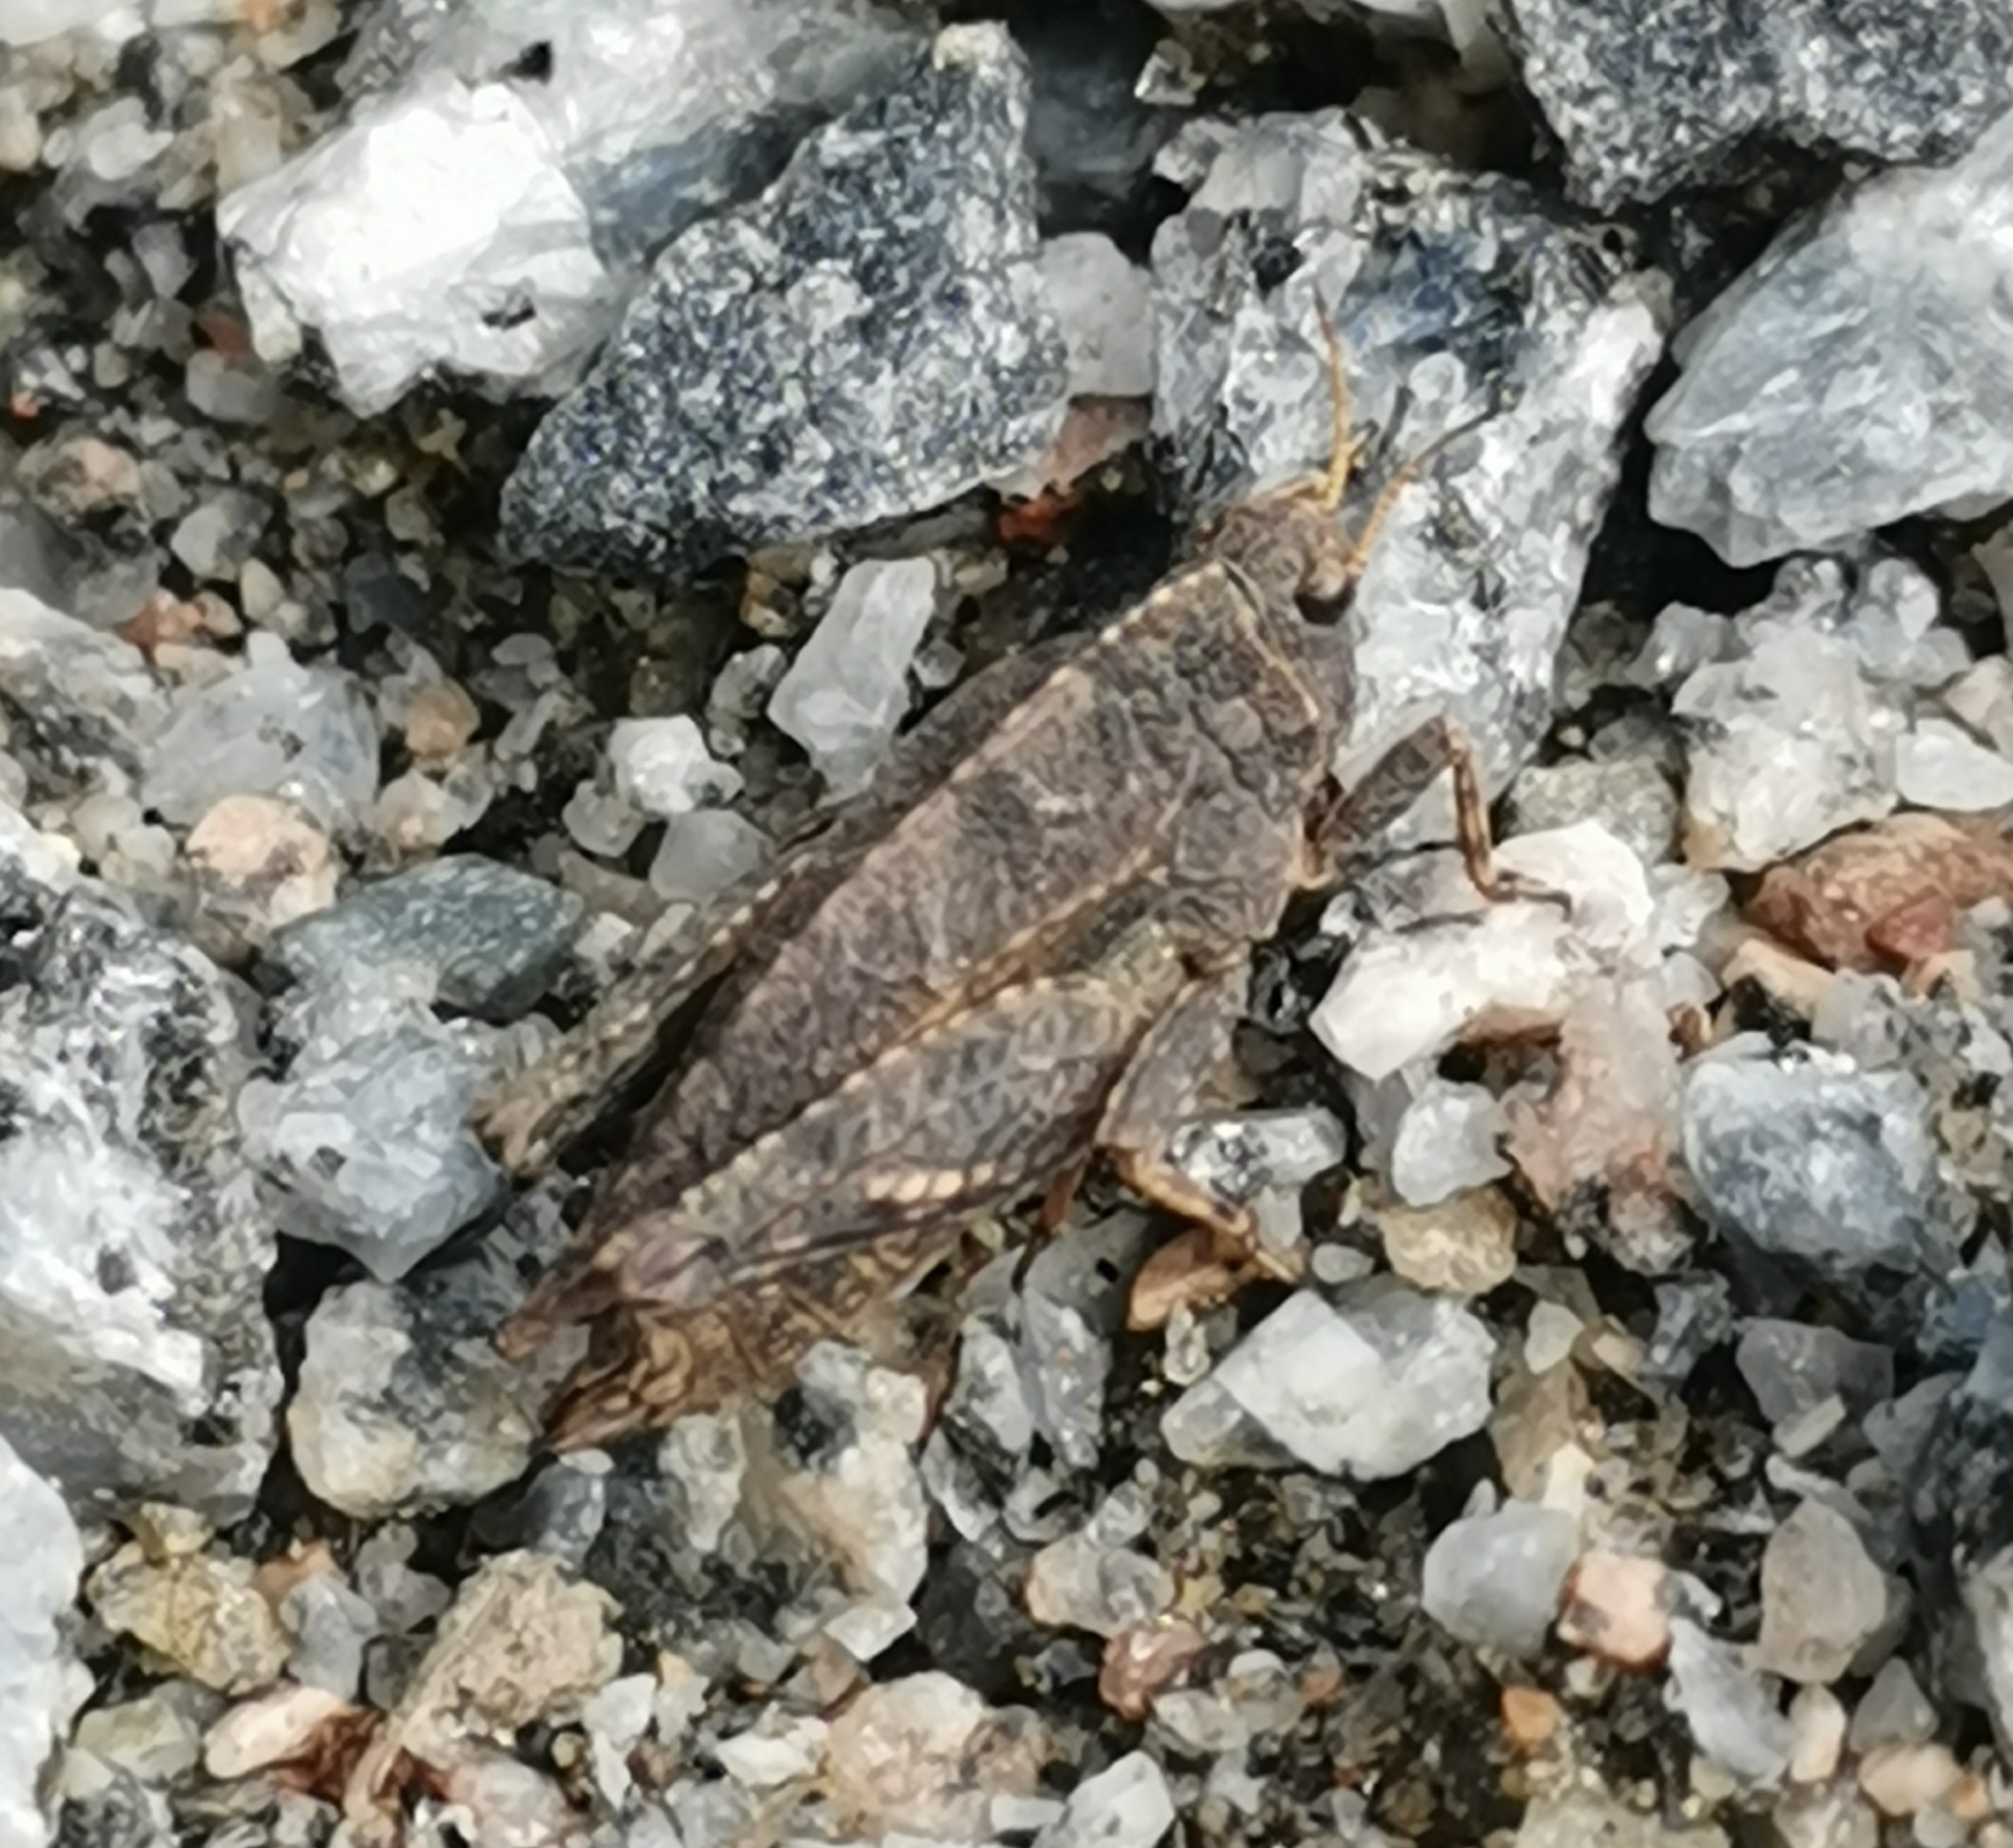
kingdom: Animalia
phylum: Arthropoda
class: Insecta
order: Orthoptera
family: Tetrigidae
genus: Tetrix
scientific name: Tetrix bipunctata
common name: Two-spotted groundhopper
